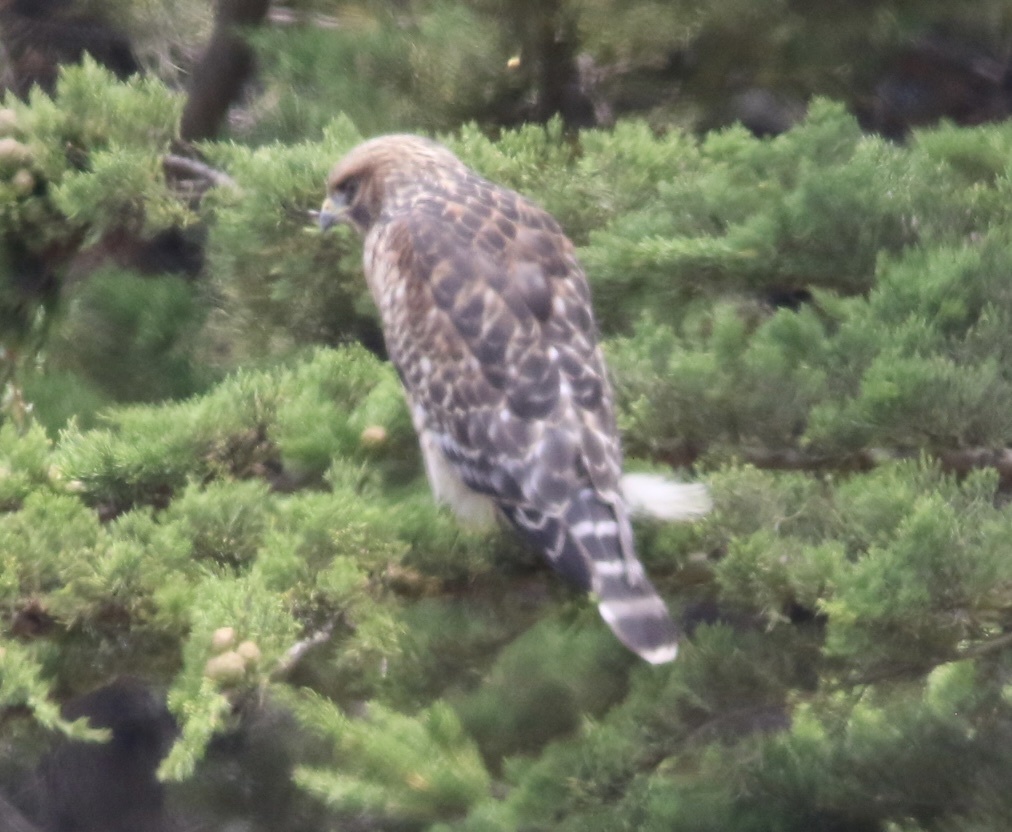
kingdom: Animalia
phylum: Chordata
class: Aves
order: Accipitriformes
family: Accipitridae
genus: Buteo
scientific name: Buteo lineatus
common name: Red-shouldered hawk
